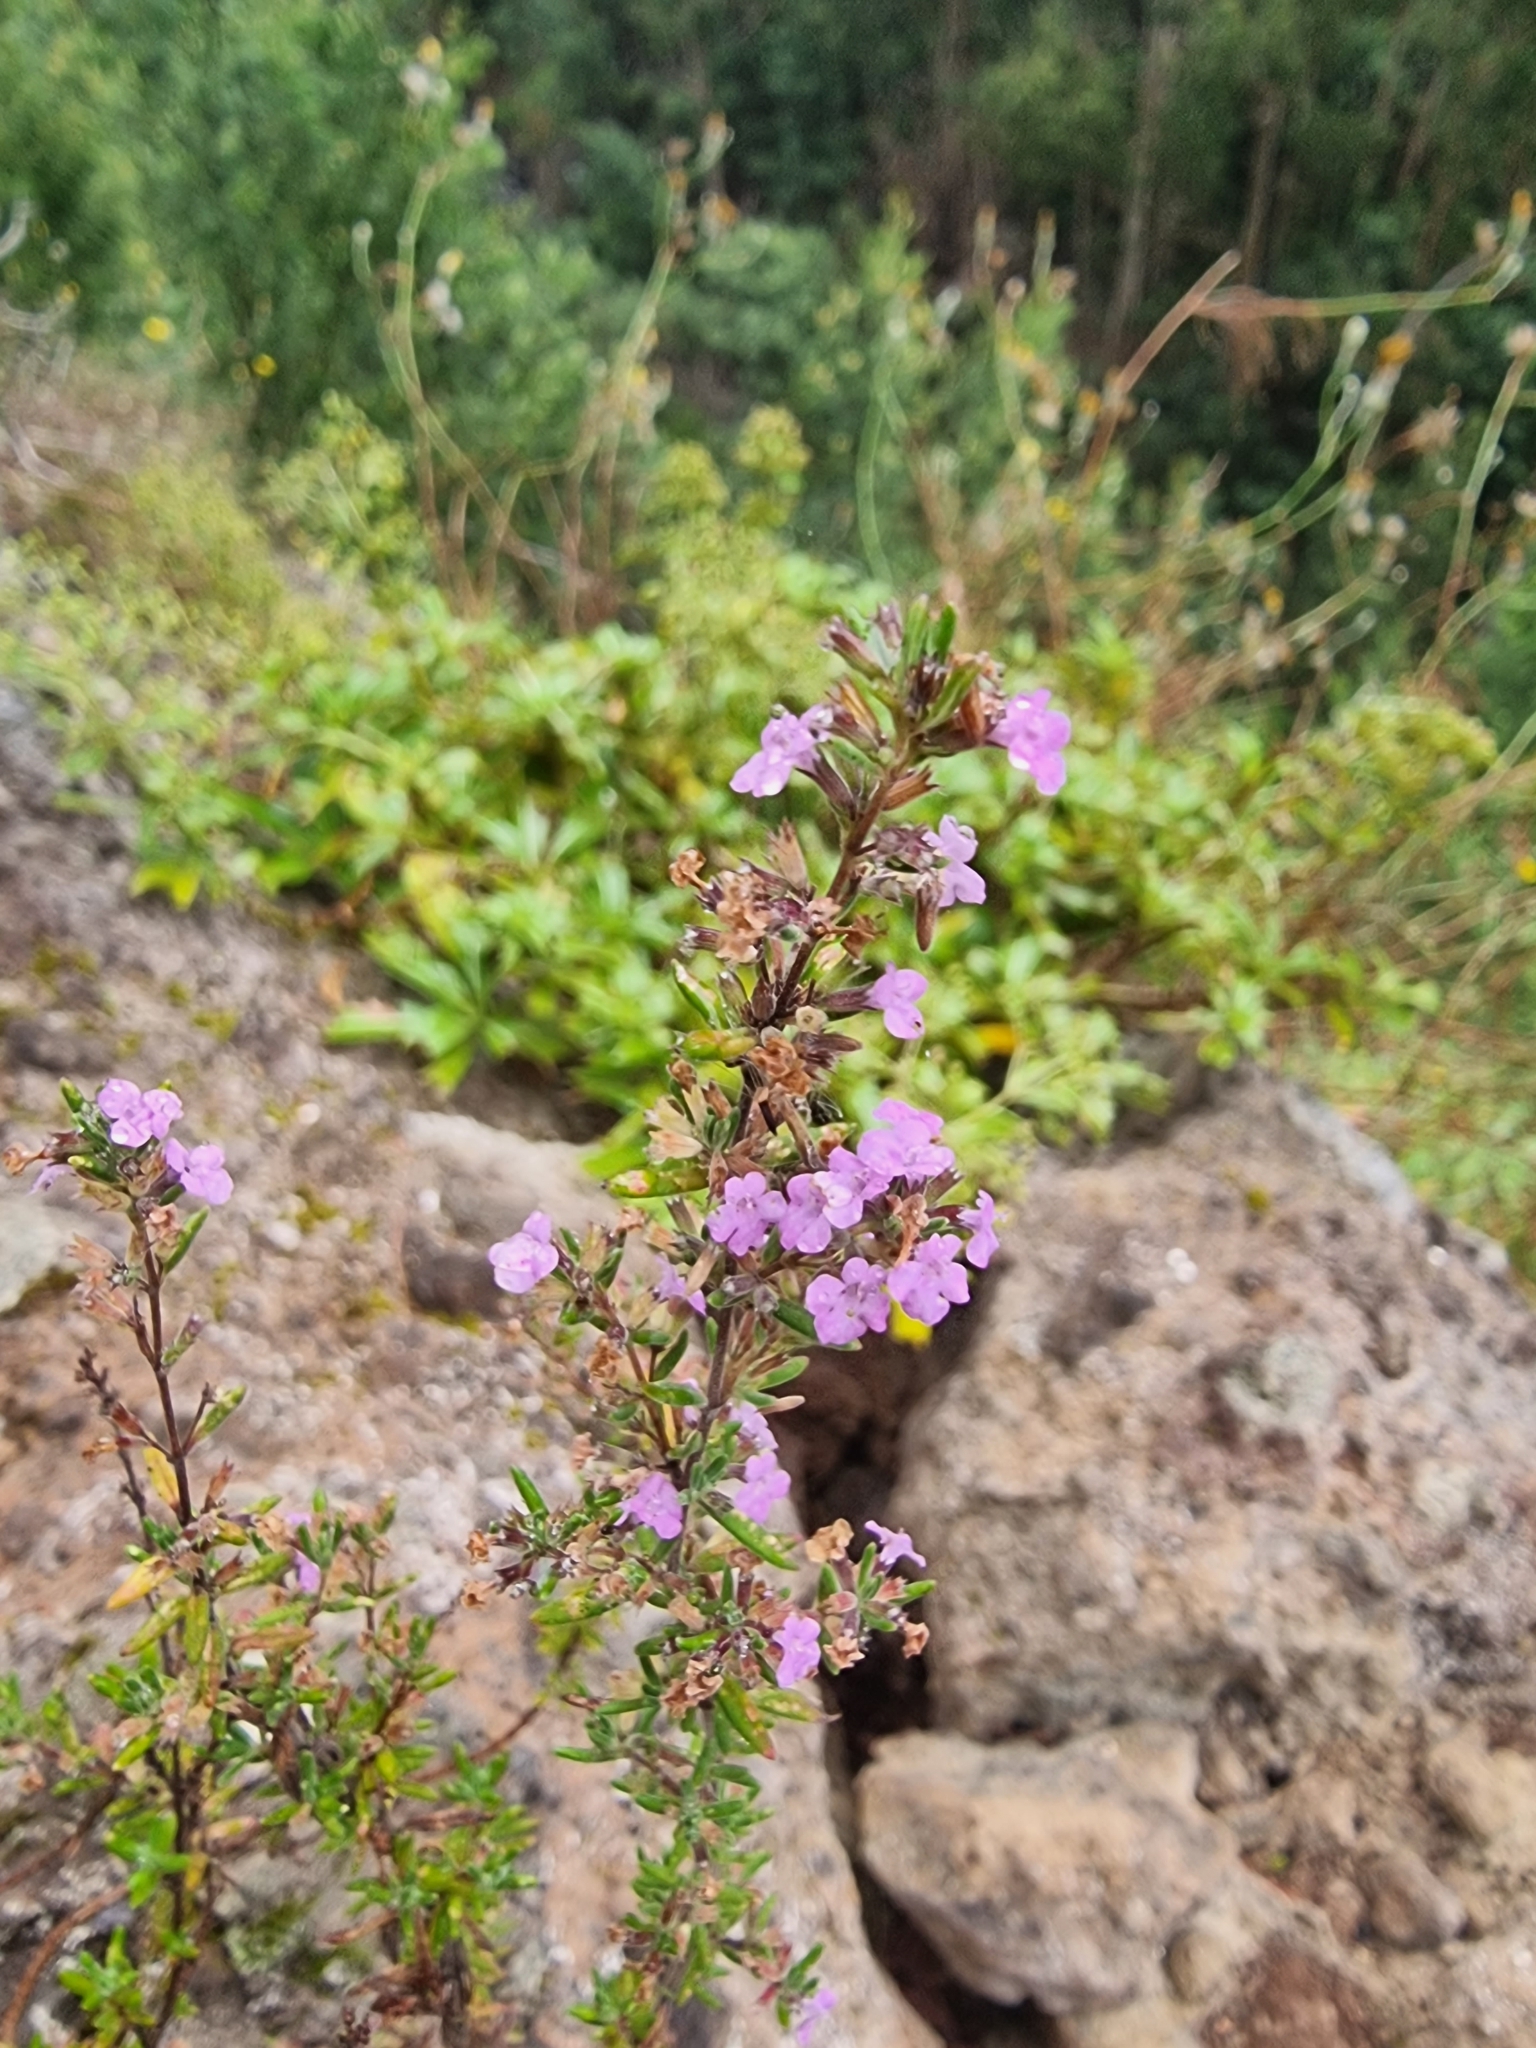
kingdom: Plantae
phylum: Tracheophyta
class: Magnoliopsida
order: Lamiales
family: Lamiaceae
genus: Micromeria
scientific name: Micromeria maderensis
